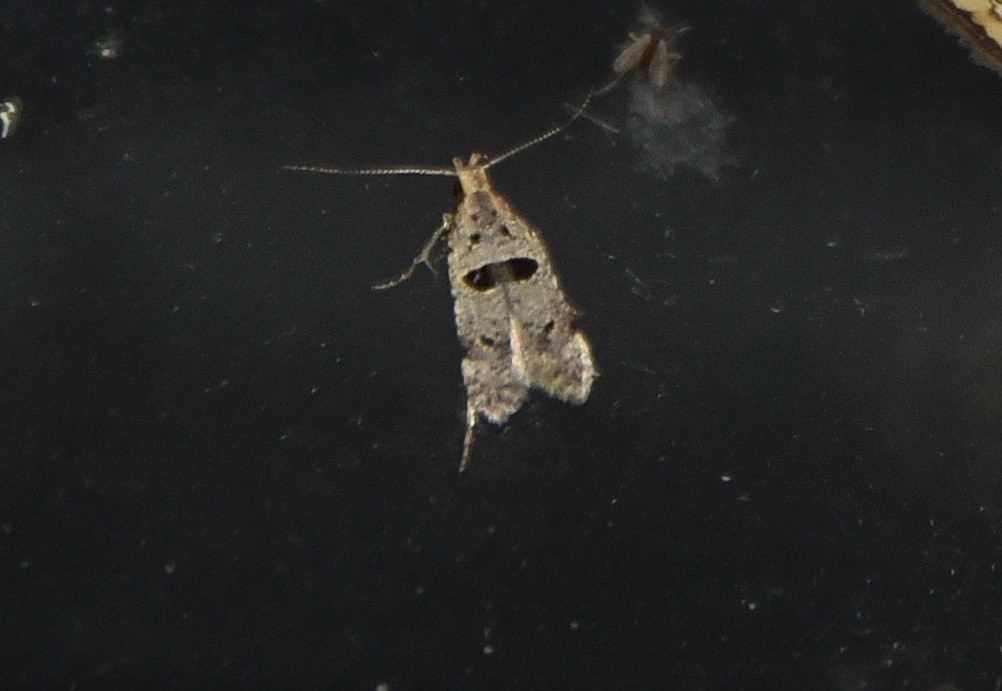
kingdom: Animalia
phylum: Arthropoda
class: Insecta
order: Lepidoptera
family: Gelechiidae
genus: Deltophora
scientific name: Deltophora glandiferella
